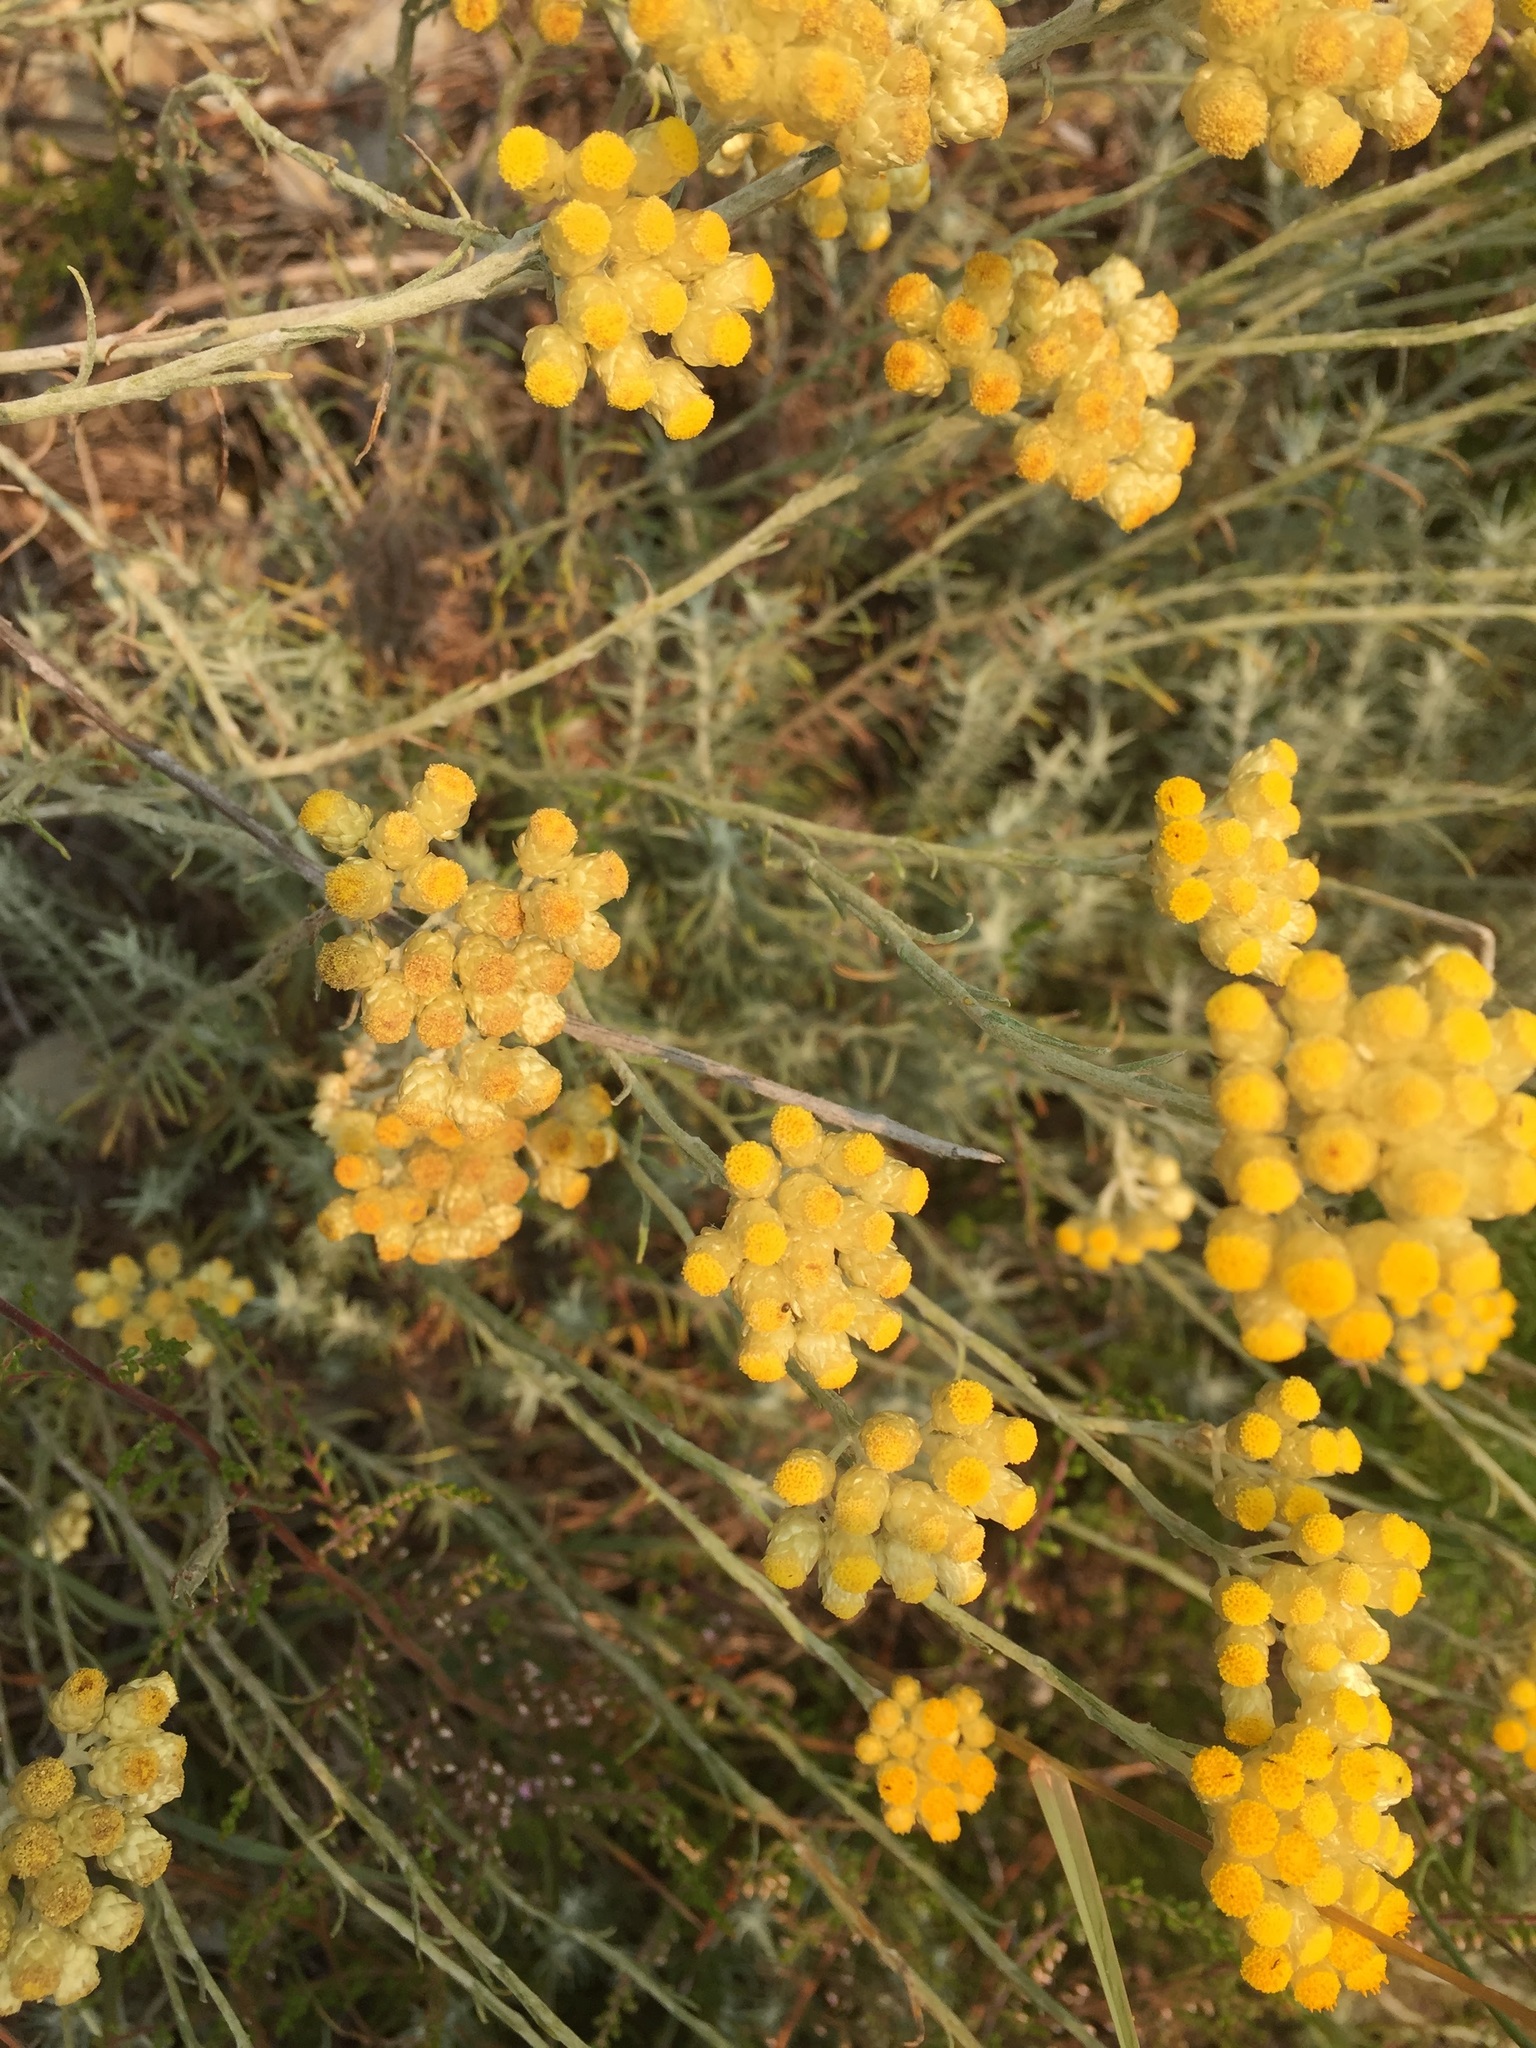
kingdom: Plantae
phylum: Tracheophyta
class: Magnoliopsida
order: Asterales
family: Asteraceae
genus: Helichrysum
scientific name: Helichrysum stoechas
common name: Goldilocks
